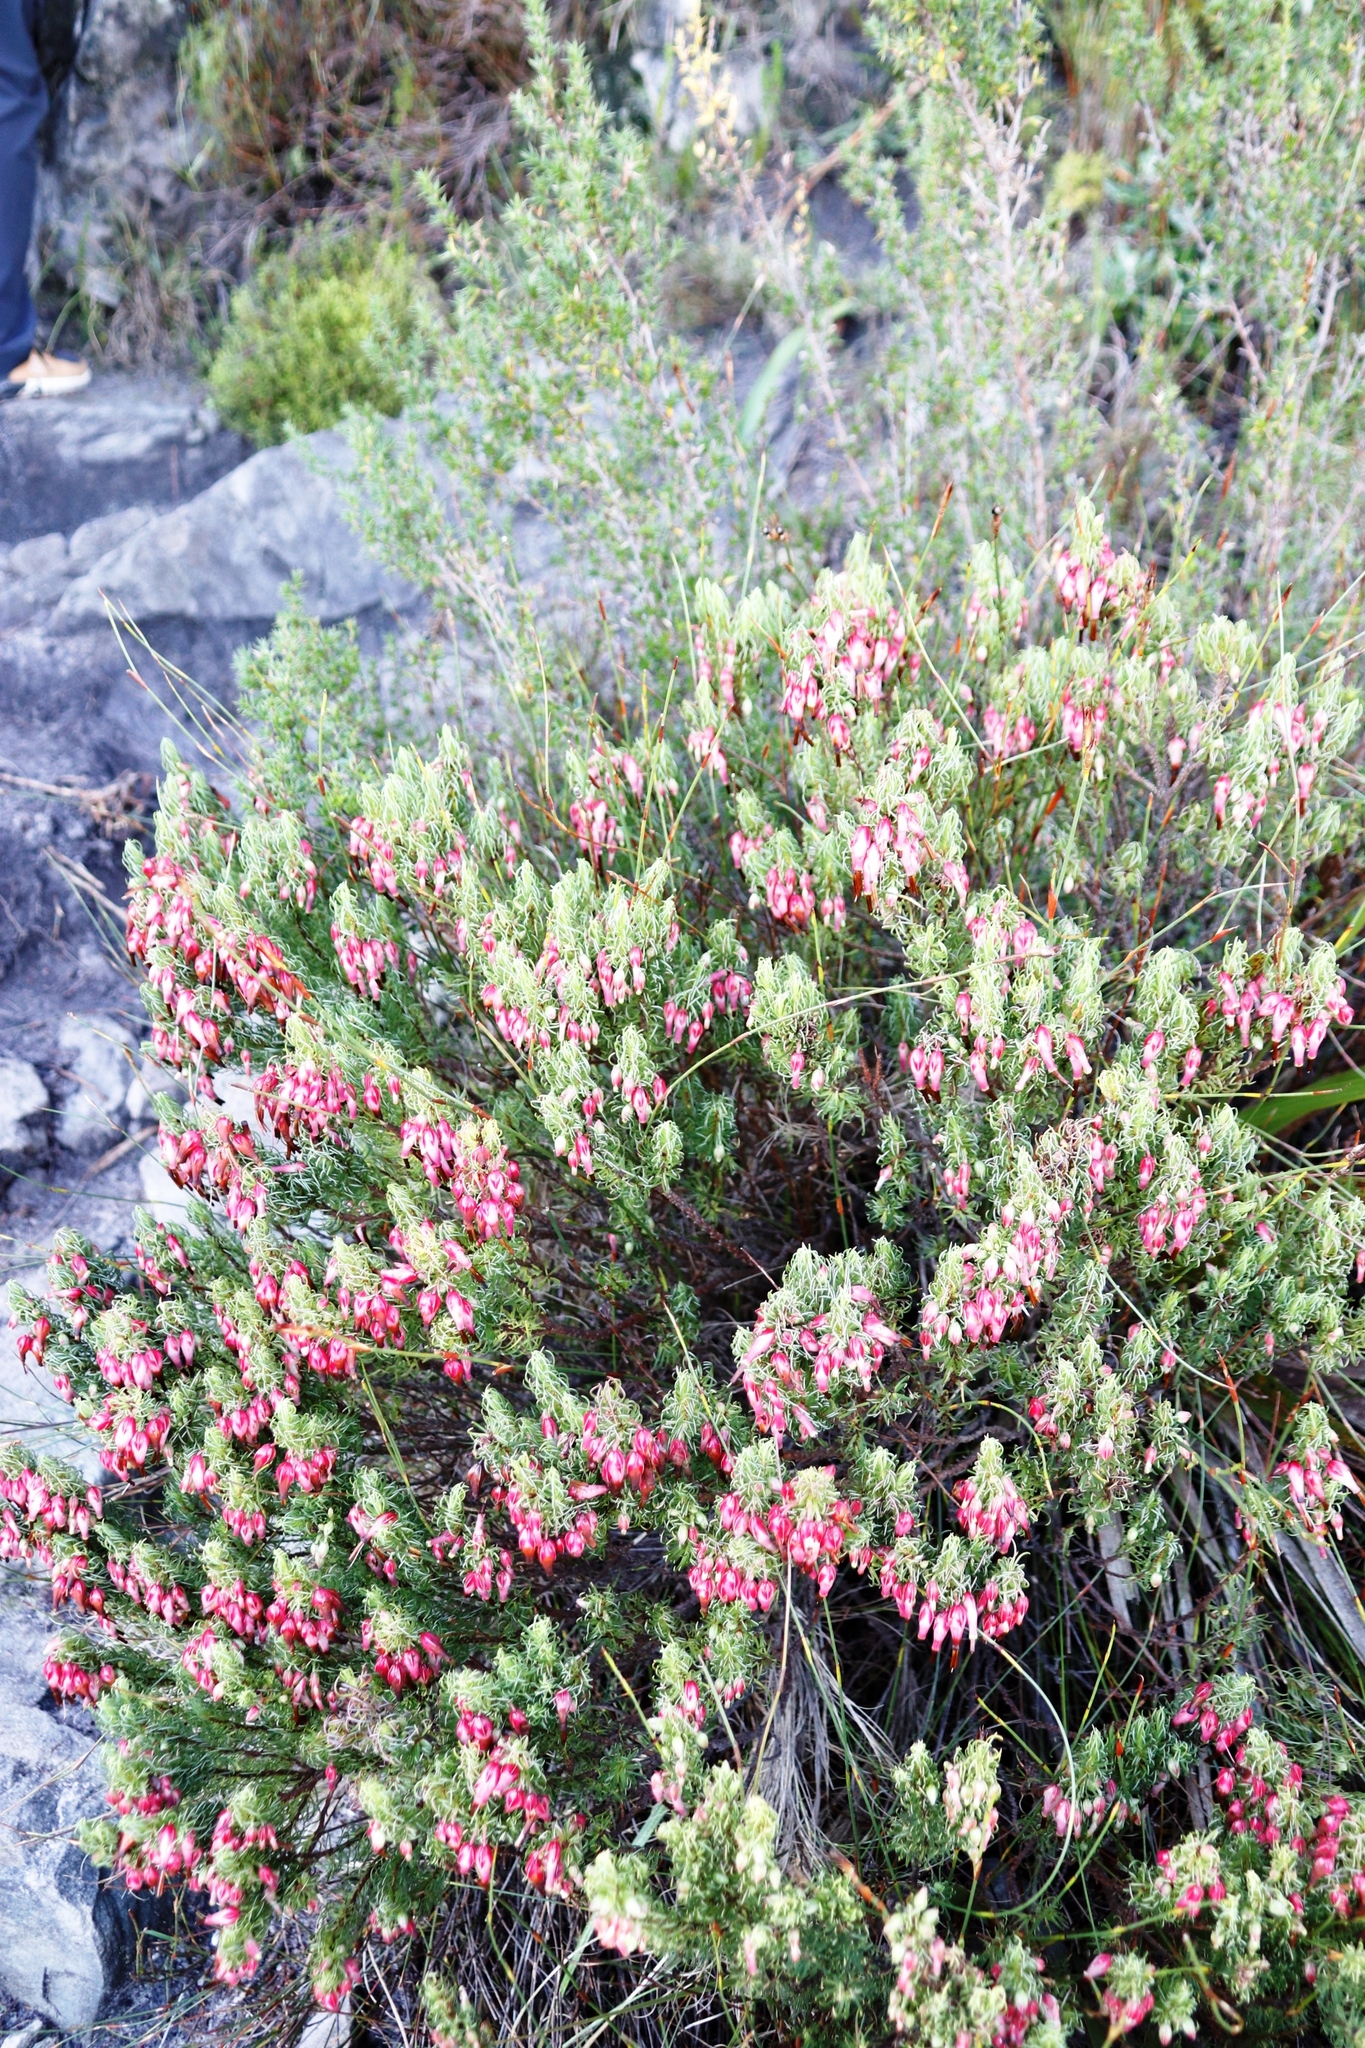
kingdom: Plantae
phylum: Tracheophyta
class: Magnoliopsida
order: Ericales
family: Ericaceae
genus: Erica
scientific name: Erica plukenetii
